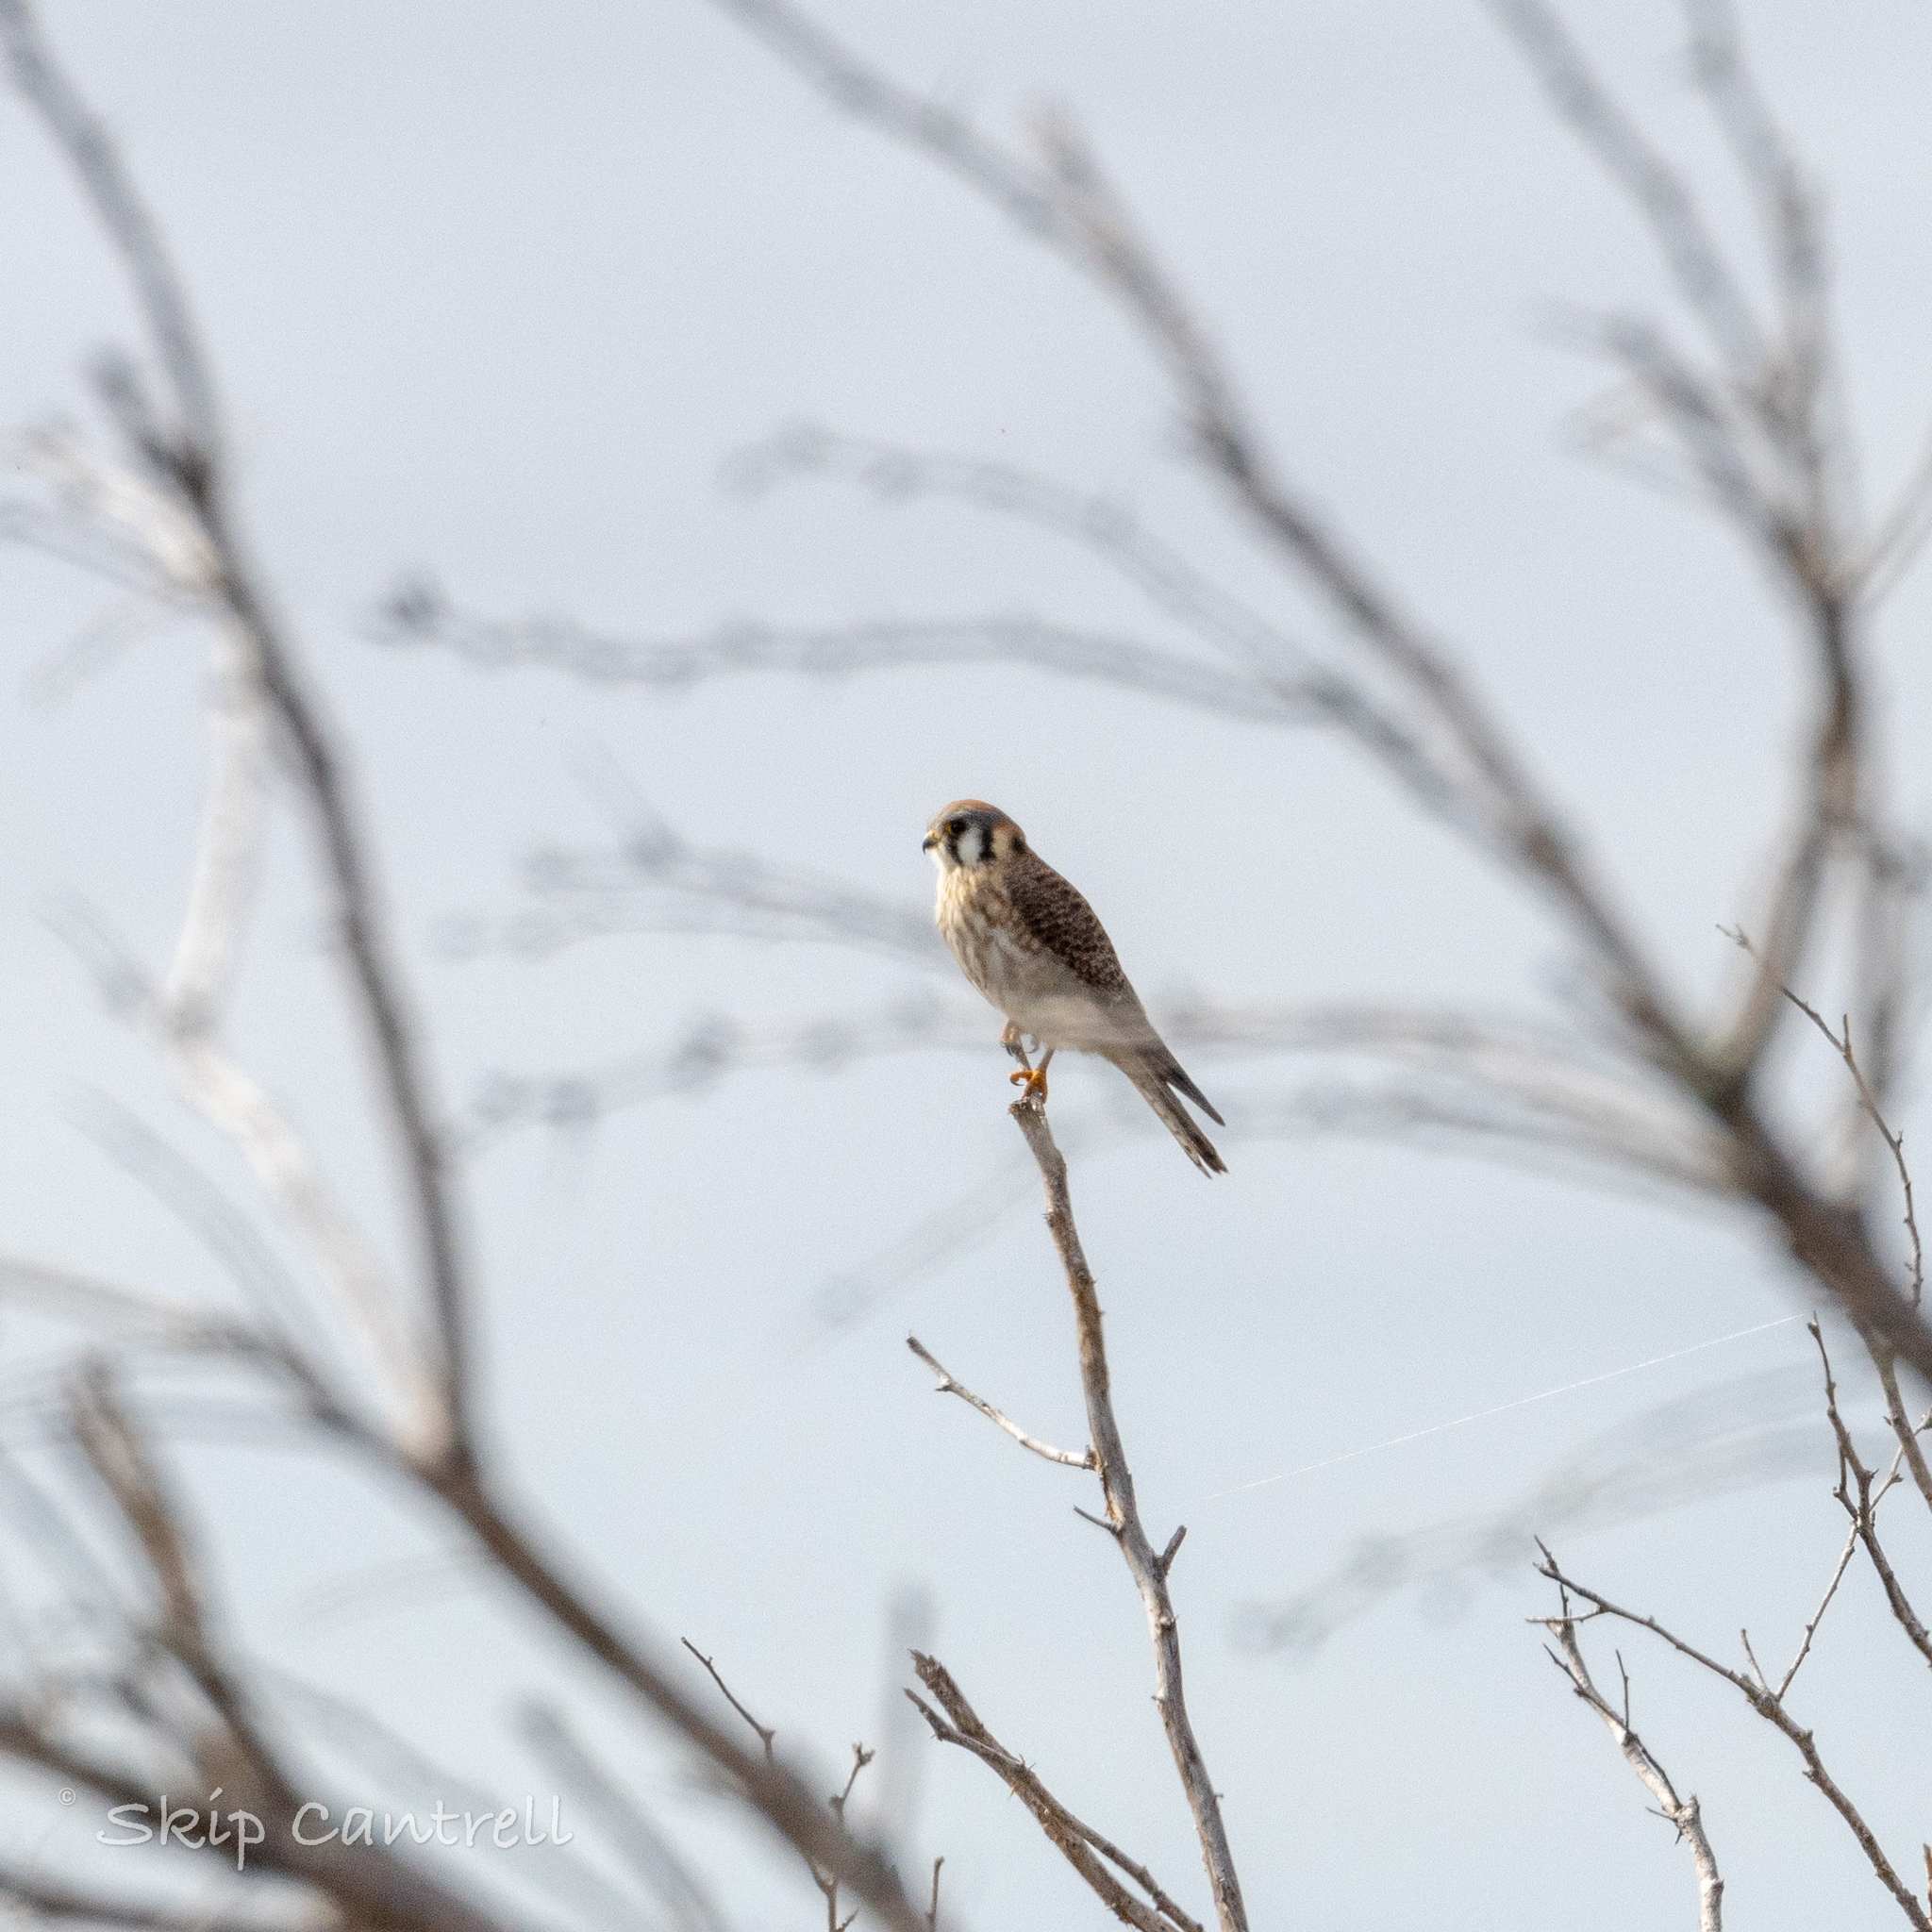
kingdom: Animalia
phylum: Chordata
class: Aves
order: Falconiformes
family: Falconidae
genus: Falco
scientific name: Falco sparverius
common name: American kestrel
